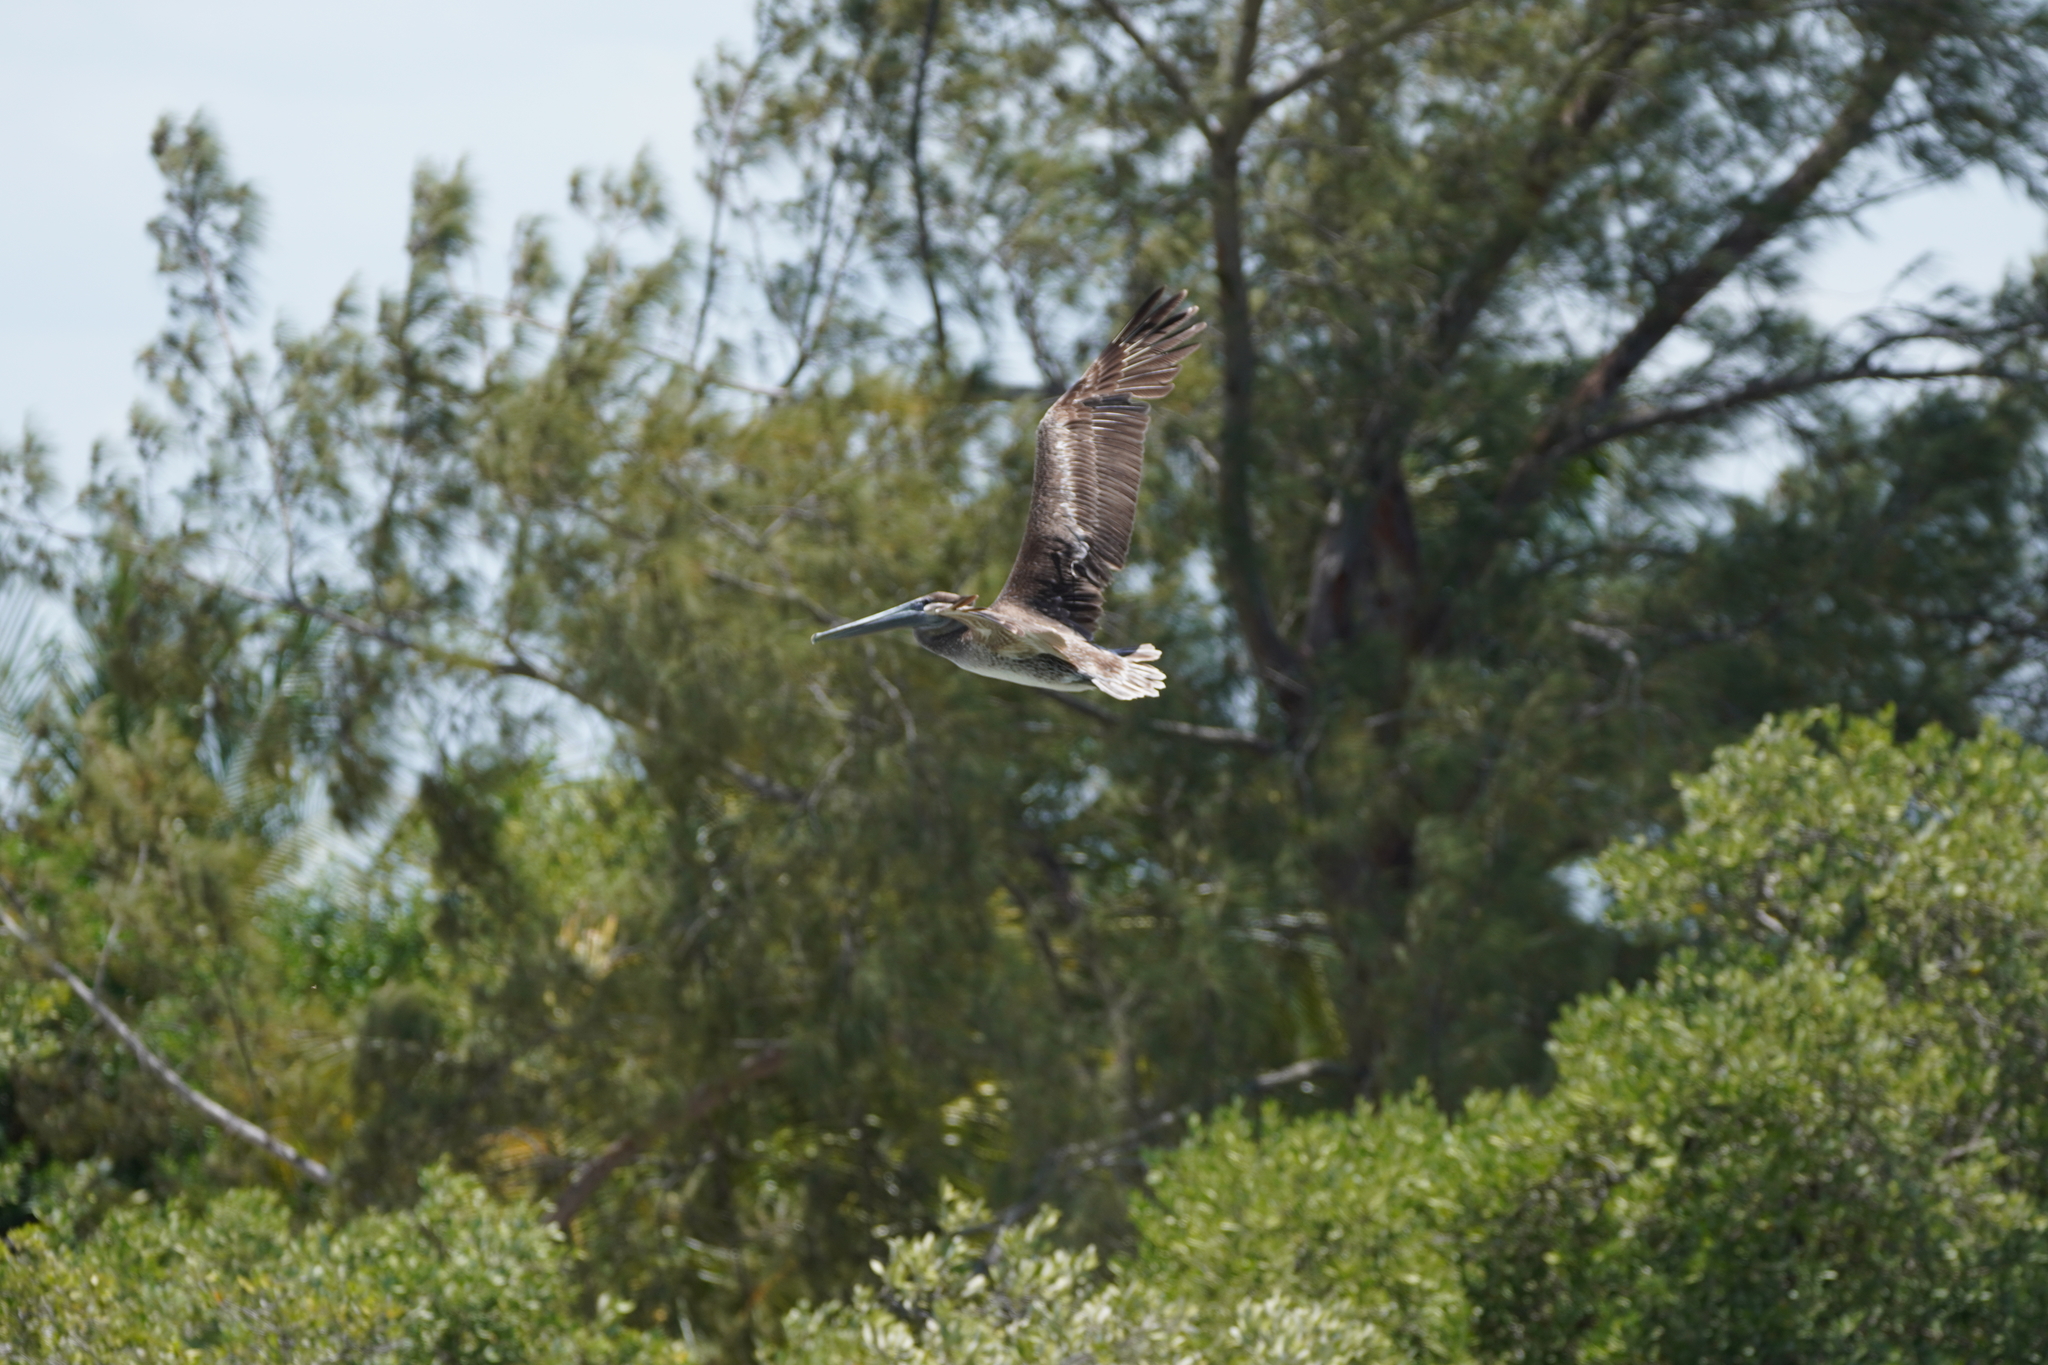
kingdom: Animalia
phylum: Chordata
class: Aves
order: Pelecaniformes
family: Pelecanidae
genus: Pelecanus
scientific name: Pelecanus occidentalis
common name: Brown pelican
